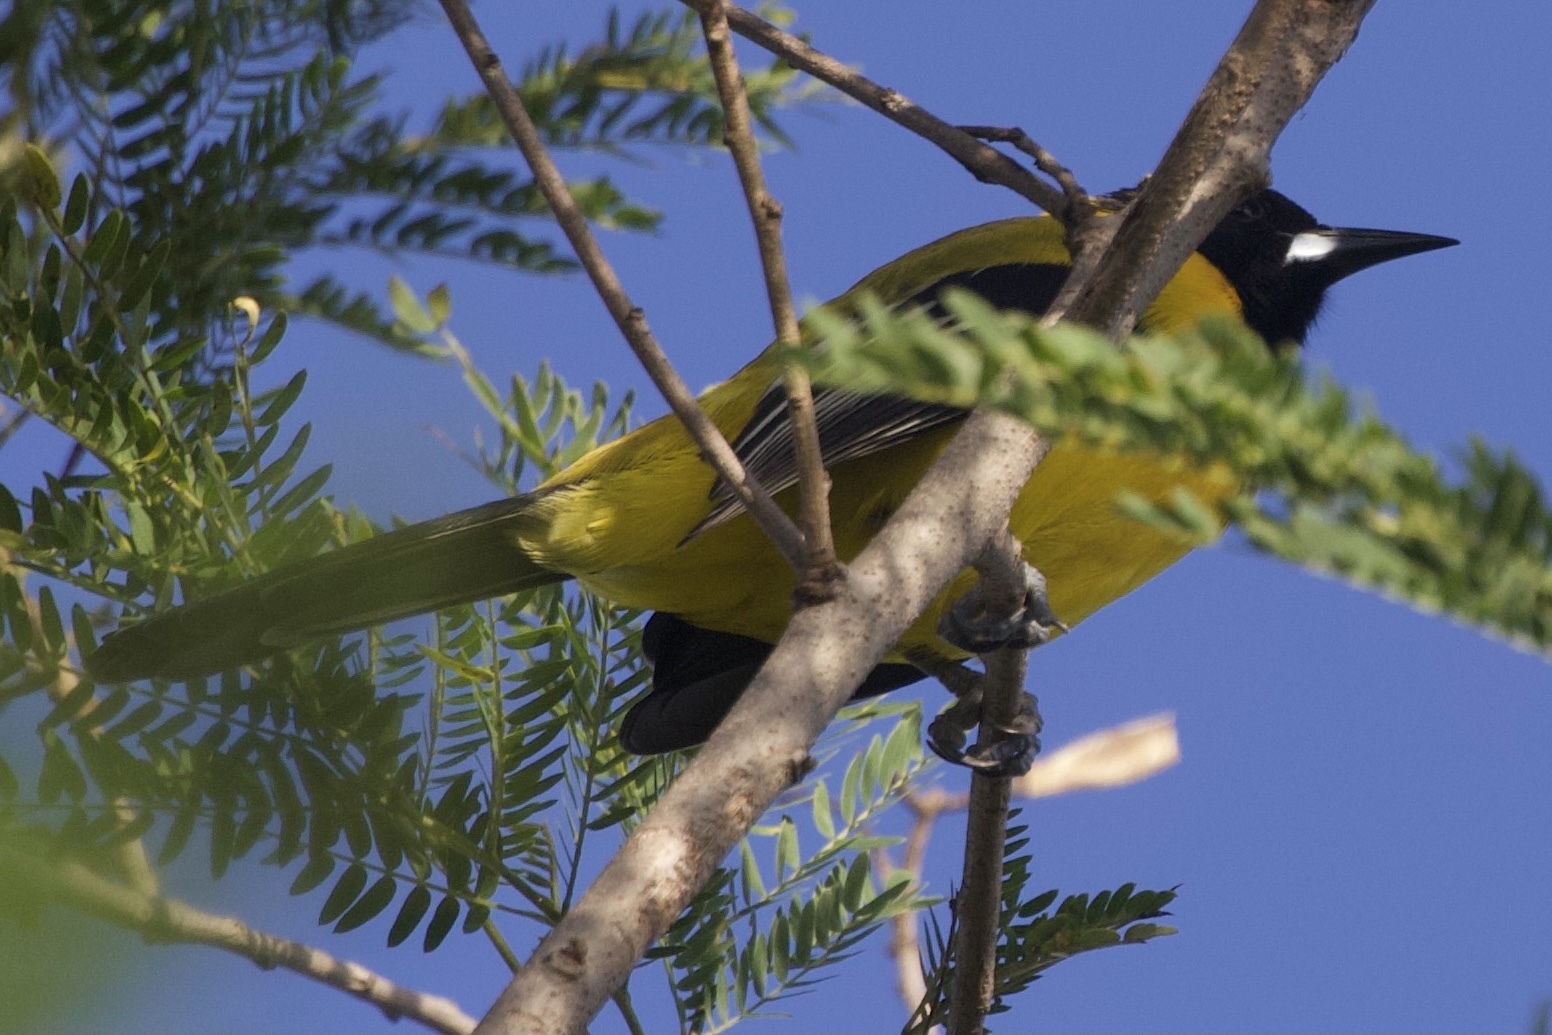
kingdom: Animalia
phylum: Chordata
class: Aves
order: Passeriformes
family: Icteridae
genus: Icterus
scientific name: Icterus graduacauda
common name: Audubon's oriole
